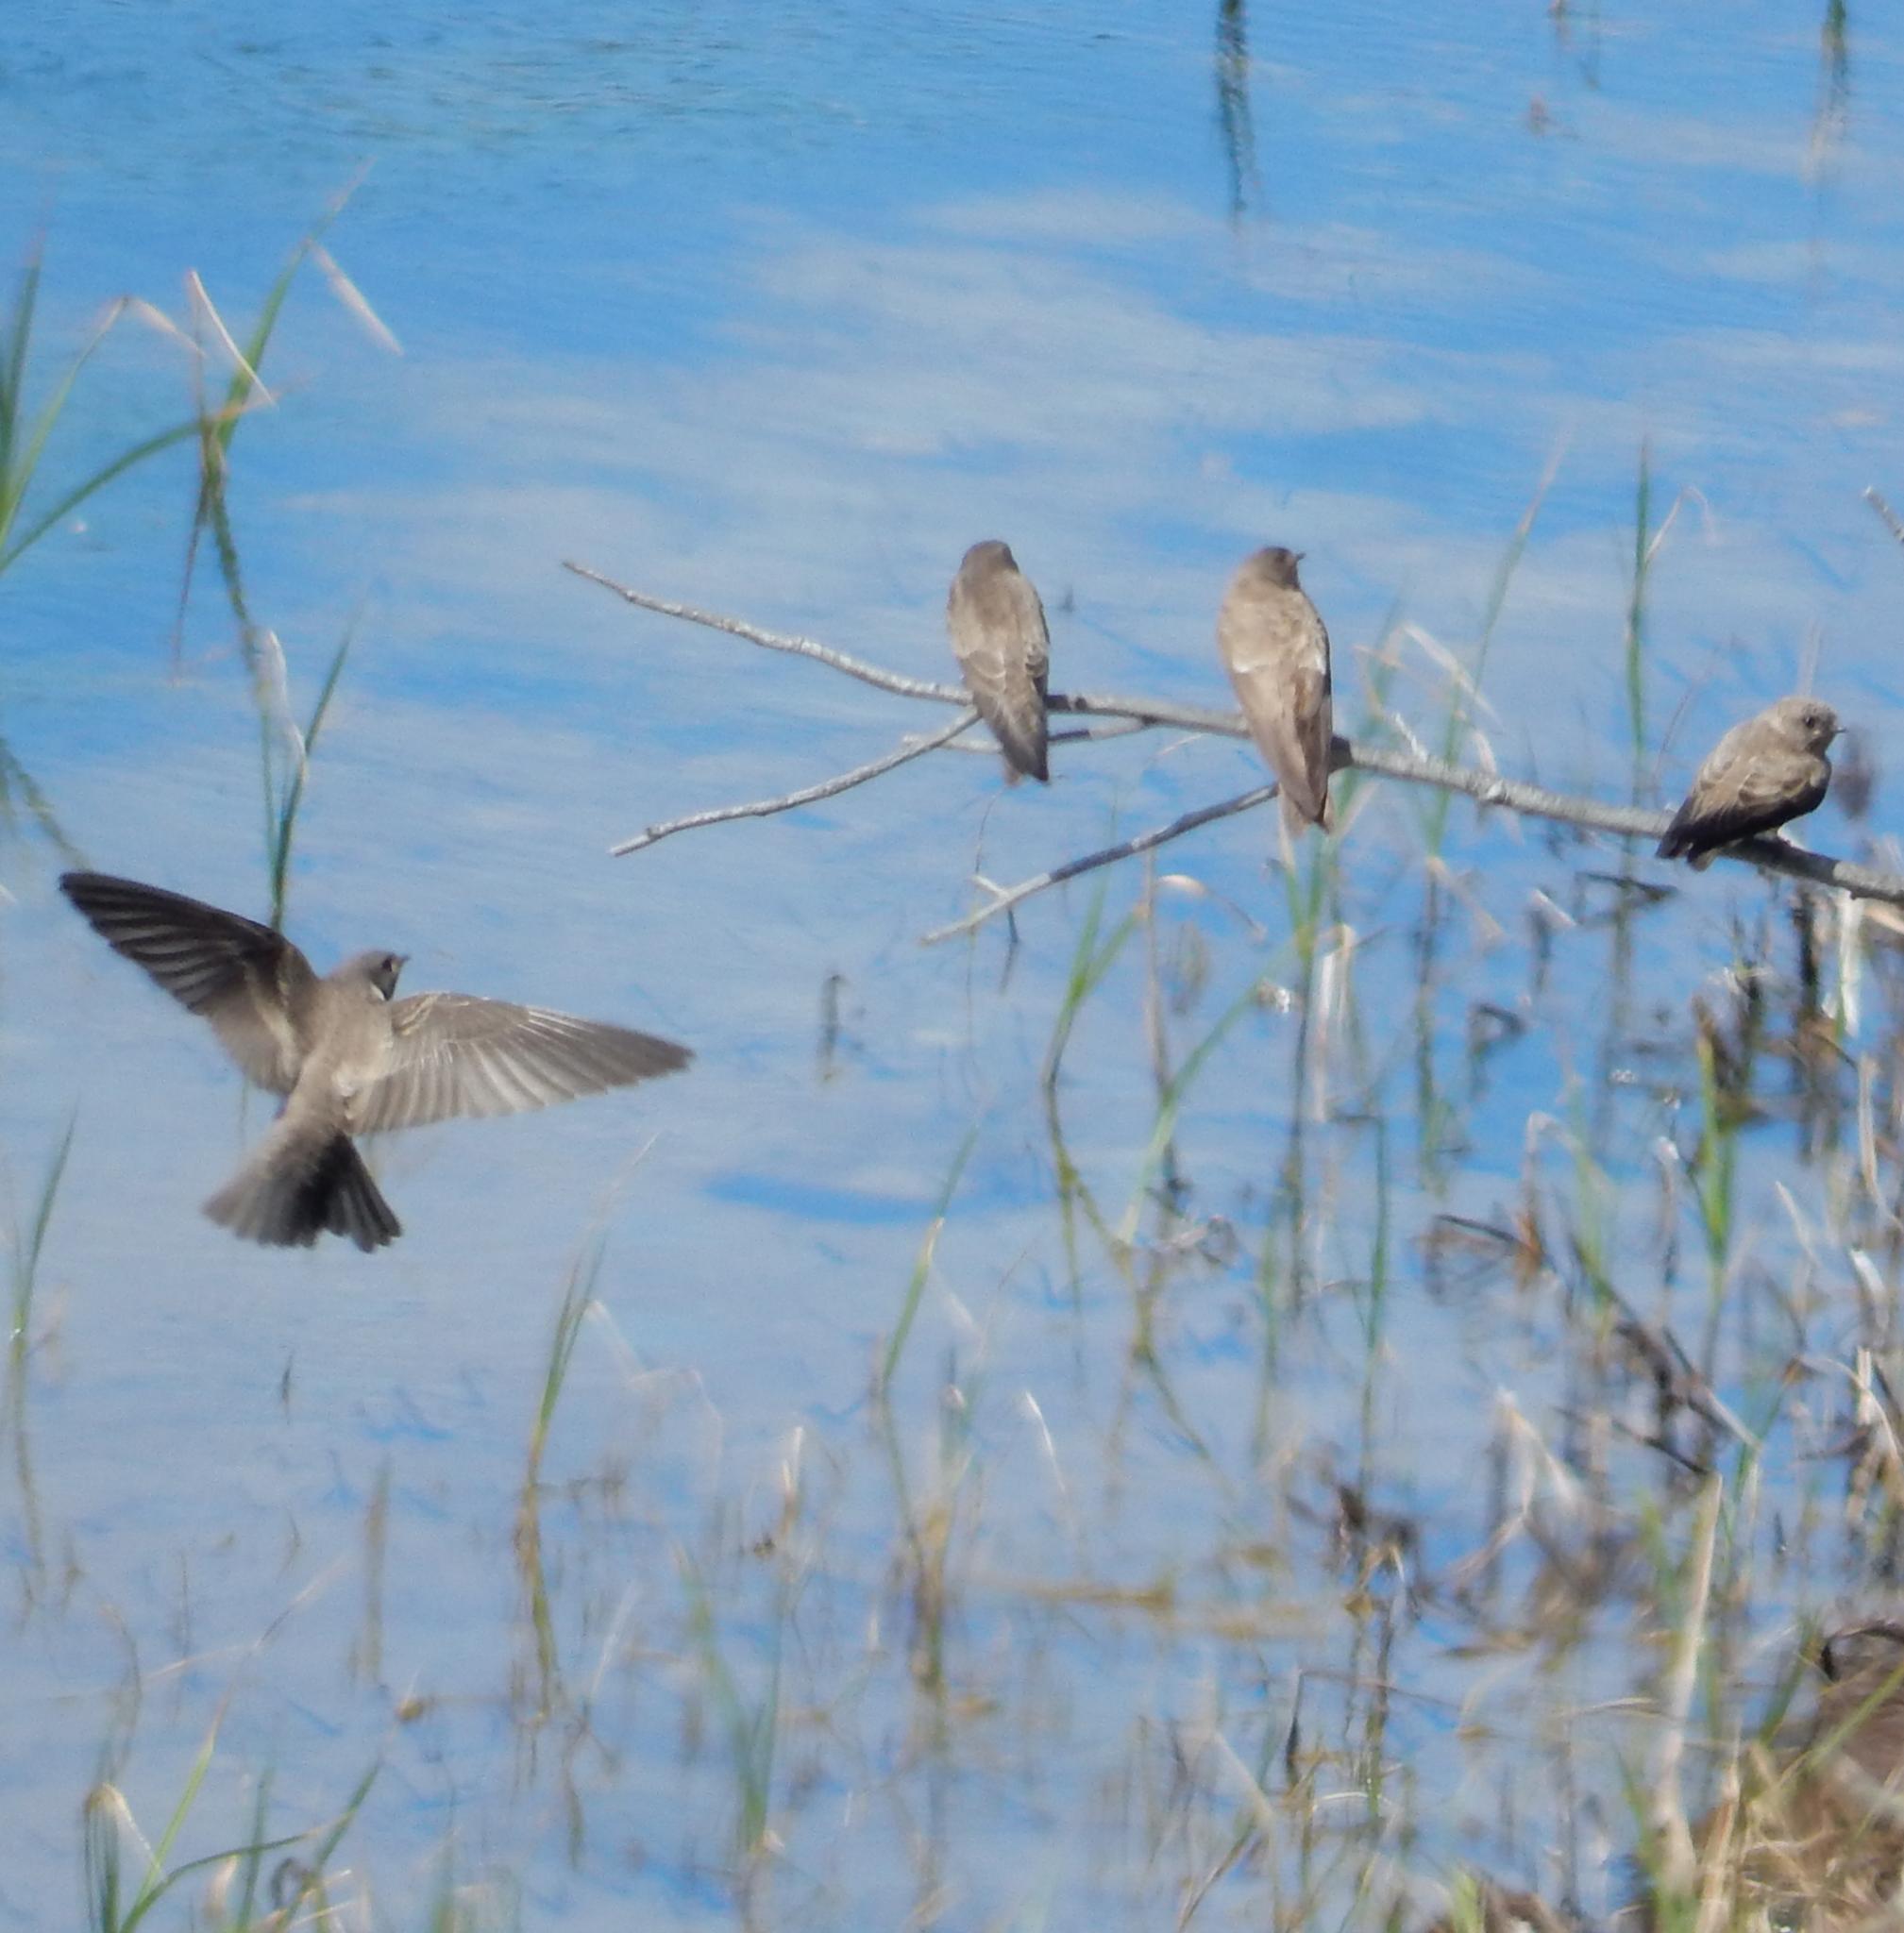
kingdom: Animalia
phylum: Chordata
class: Aves
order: Passeriformes
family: Hirundinidae
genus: Riparia
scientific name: Riparia paludicola
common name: Brown-throated martin
